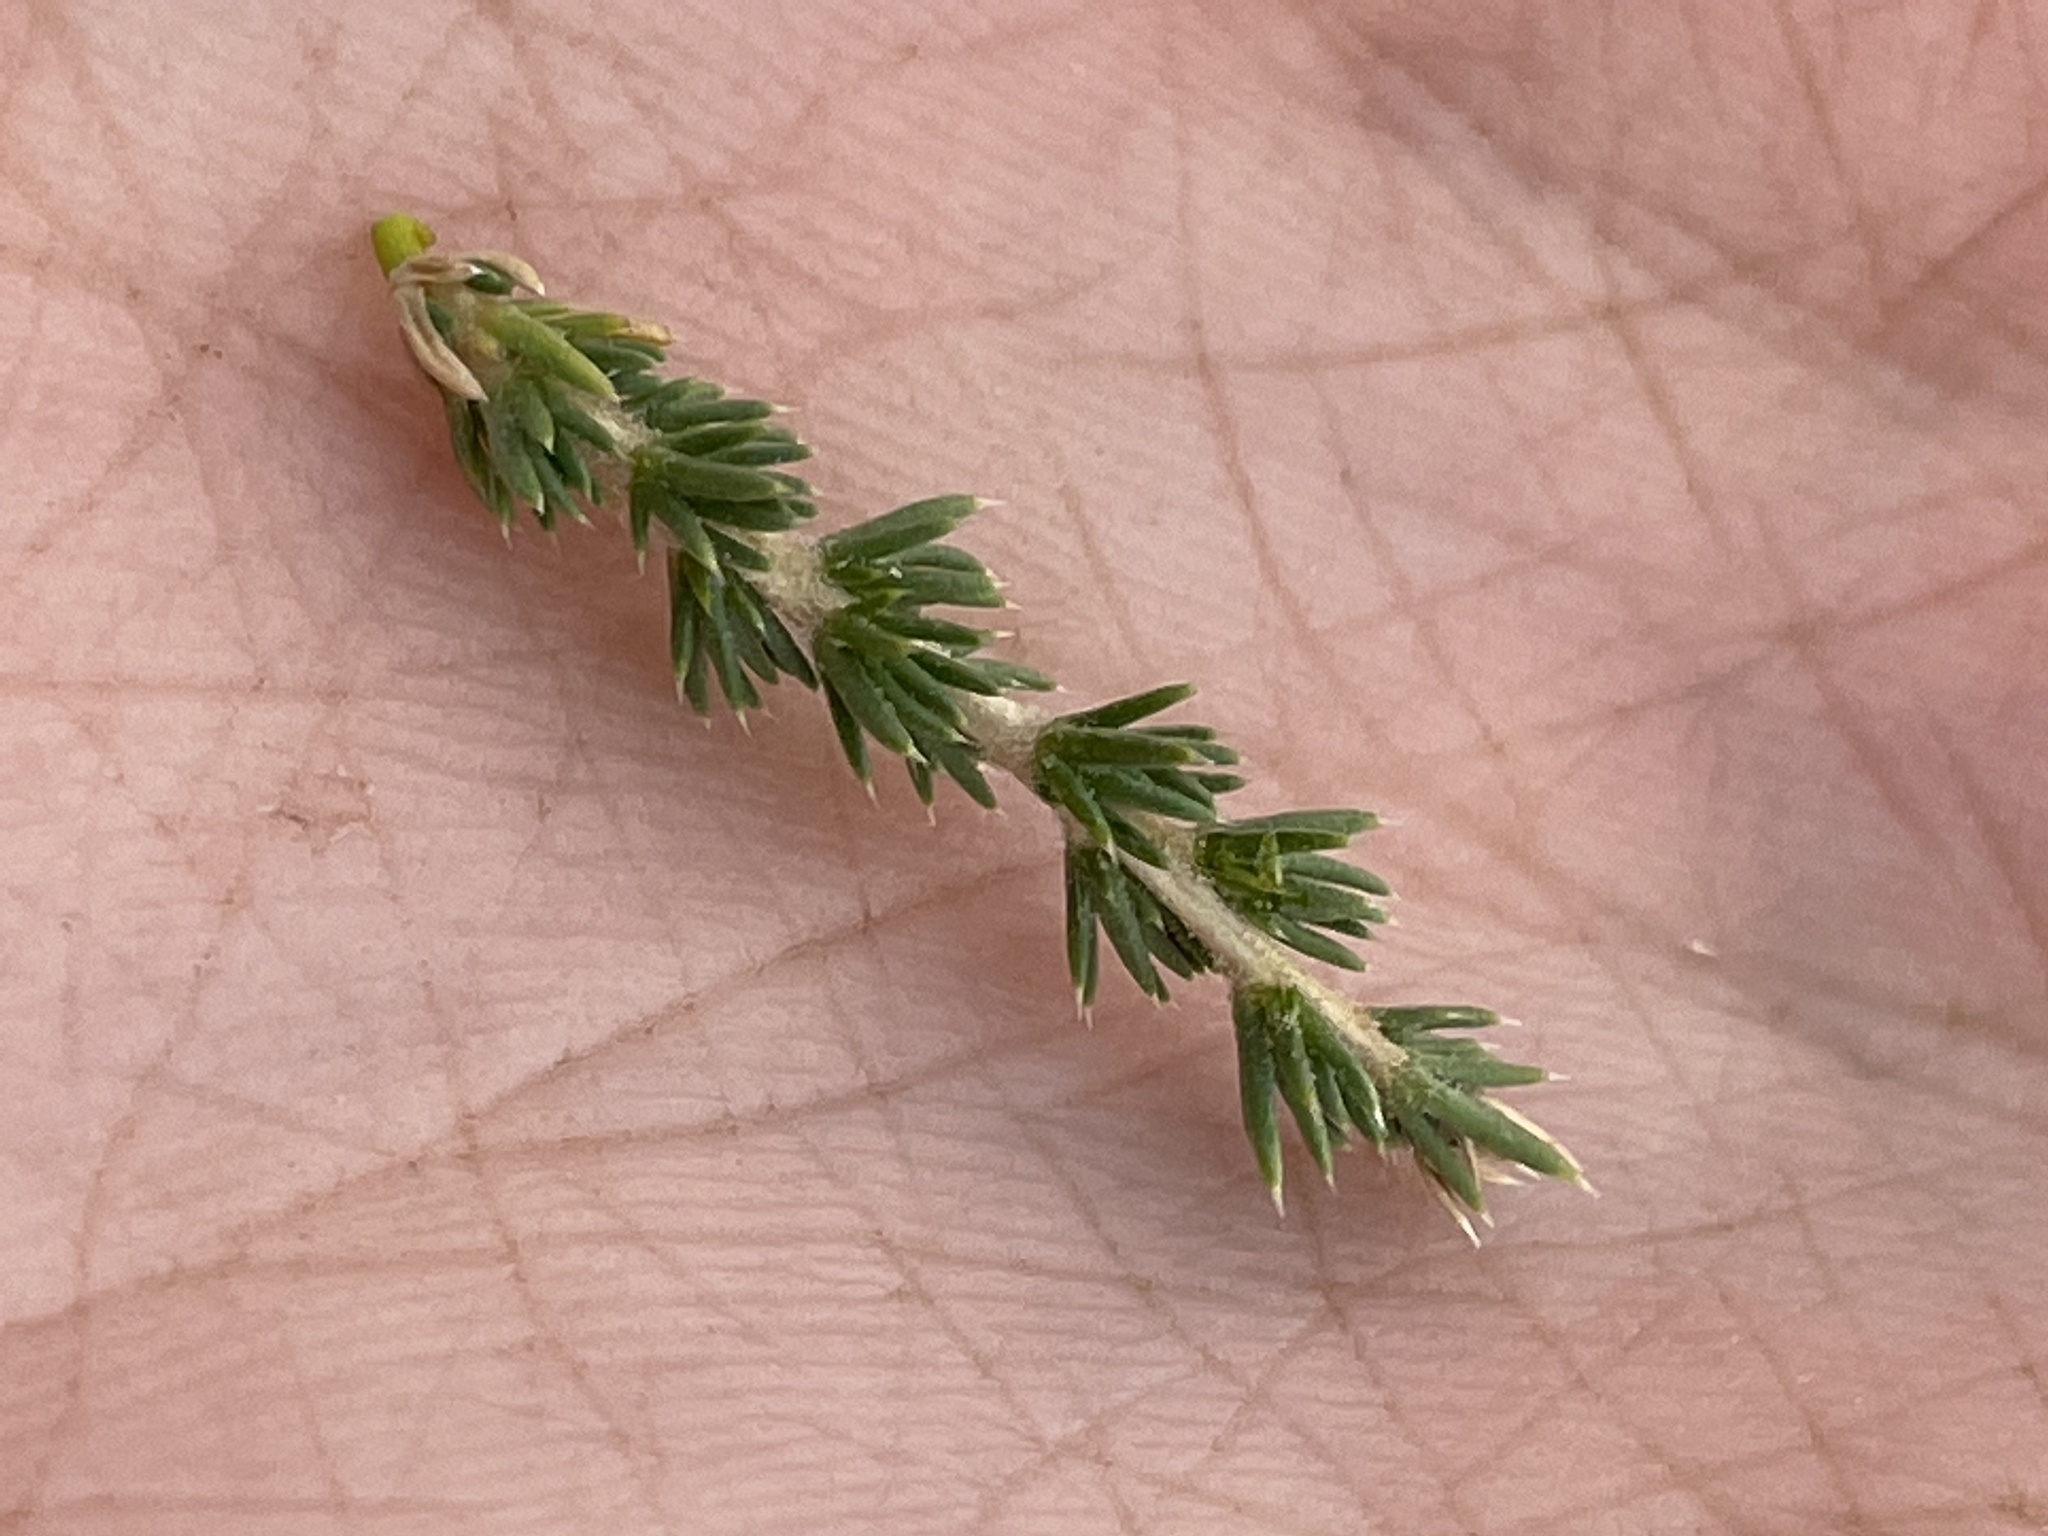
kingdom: Plantae
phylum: Tracheophyta
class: Magnoliopsida
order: Ericales
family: Polemoniaceae
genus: Linanthus
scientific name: Linanthus pungens
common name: Granite prickly phlox
